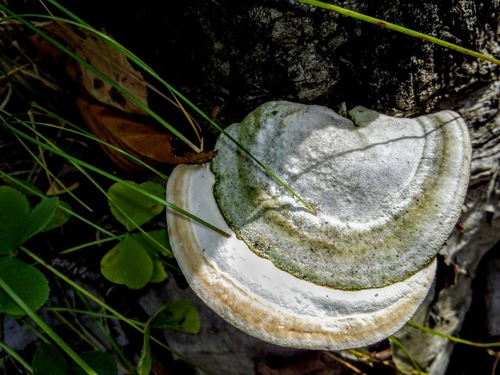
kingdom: Fungi
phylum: Basidiomycota
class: Agaricomycetes
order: Polyporales
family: Polyporaceae
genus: Trametes
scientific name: Trametes gibbosa
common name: Lumpy bracket
